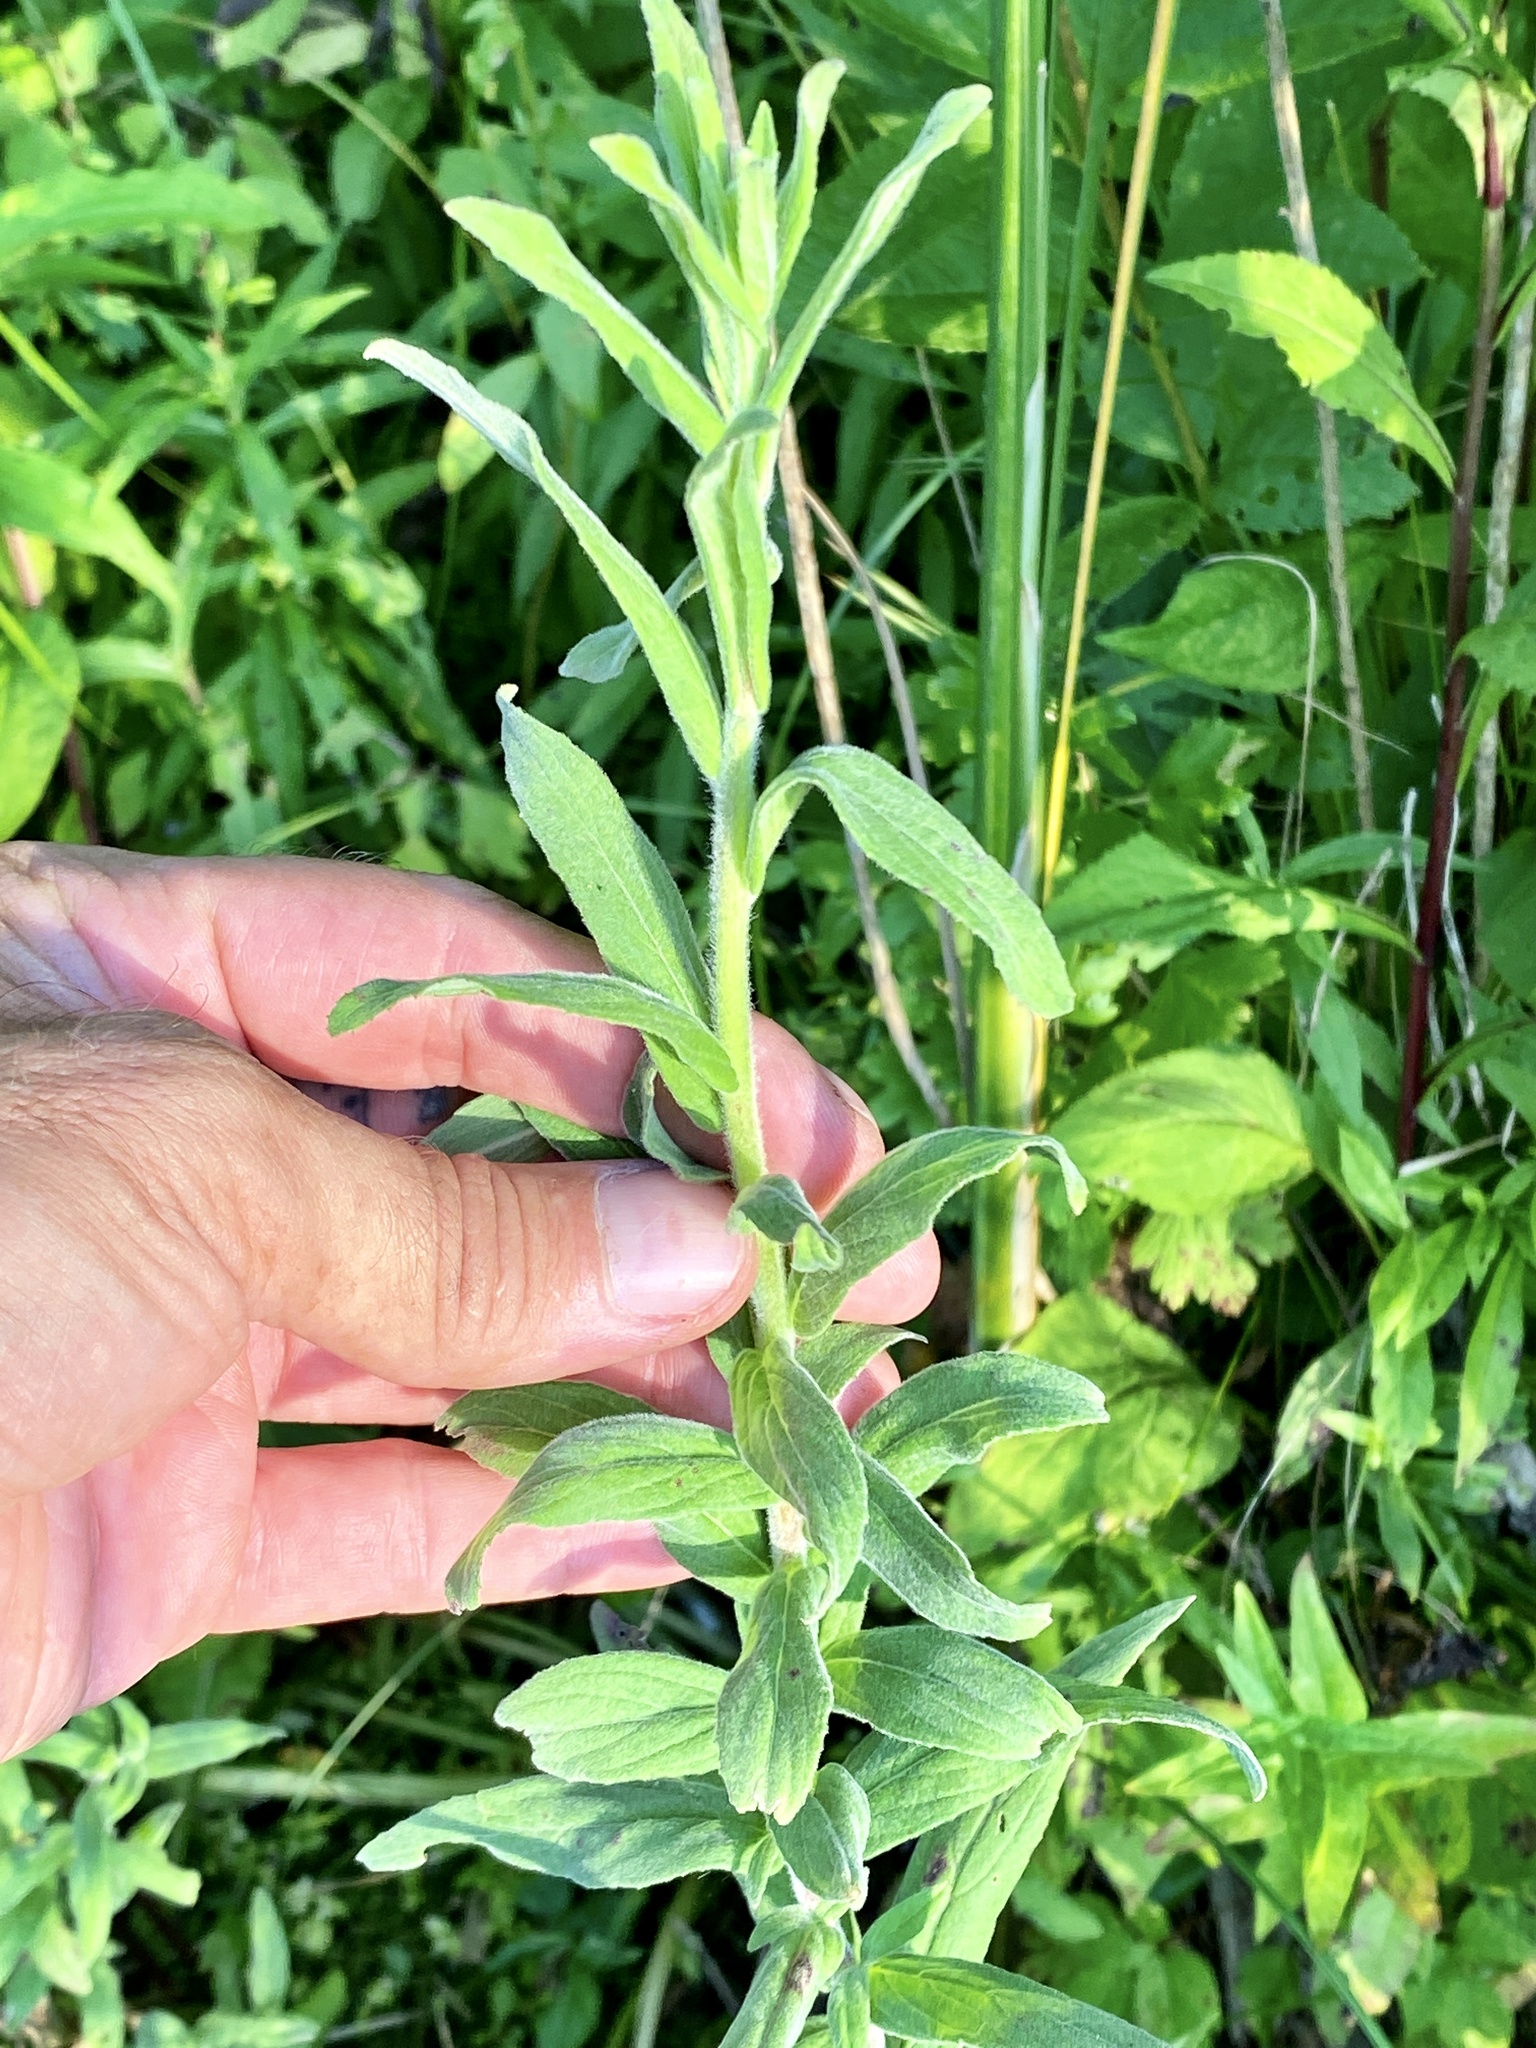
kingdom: Plantae
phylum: Tracheophyta
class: Magnoliopsida
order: Myrtales
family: Onagraceae
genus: Epilobium
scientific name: Epilobium parviflorum
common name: Hoary willowherb
